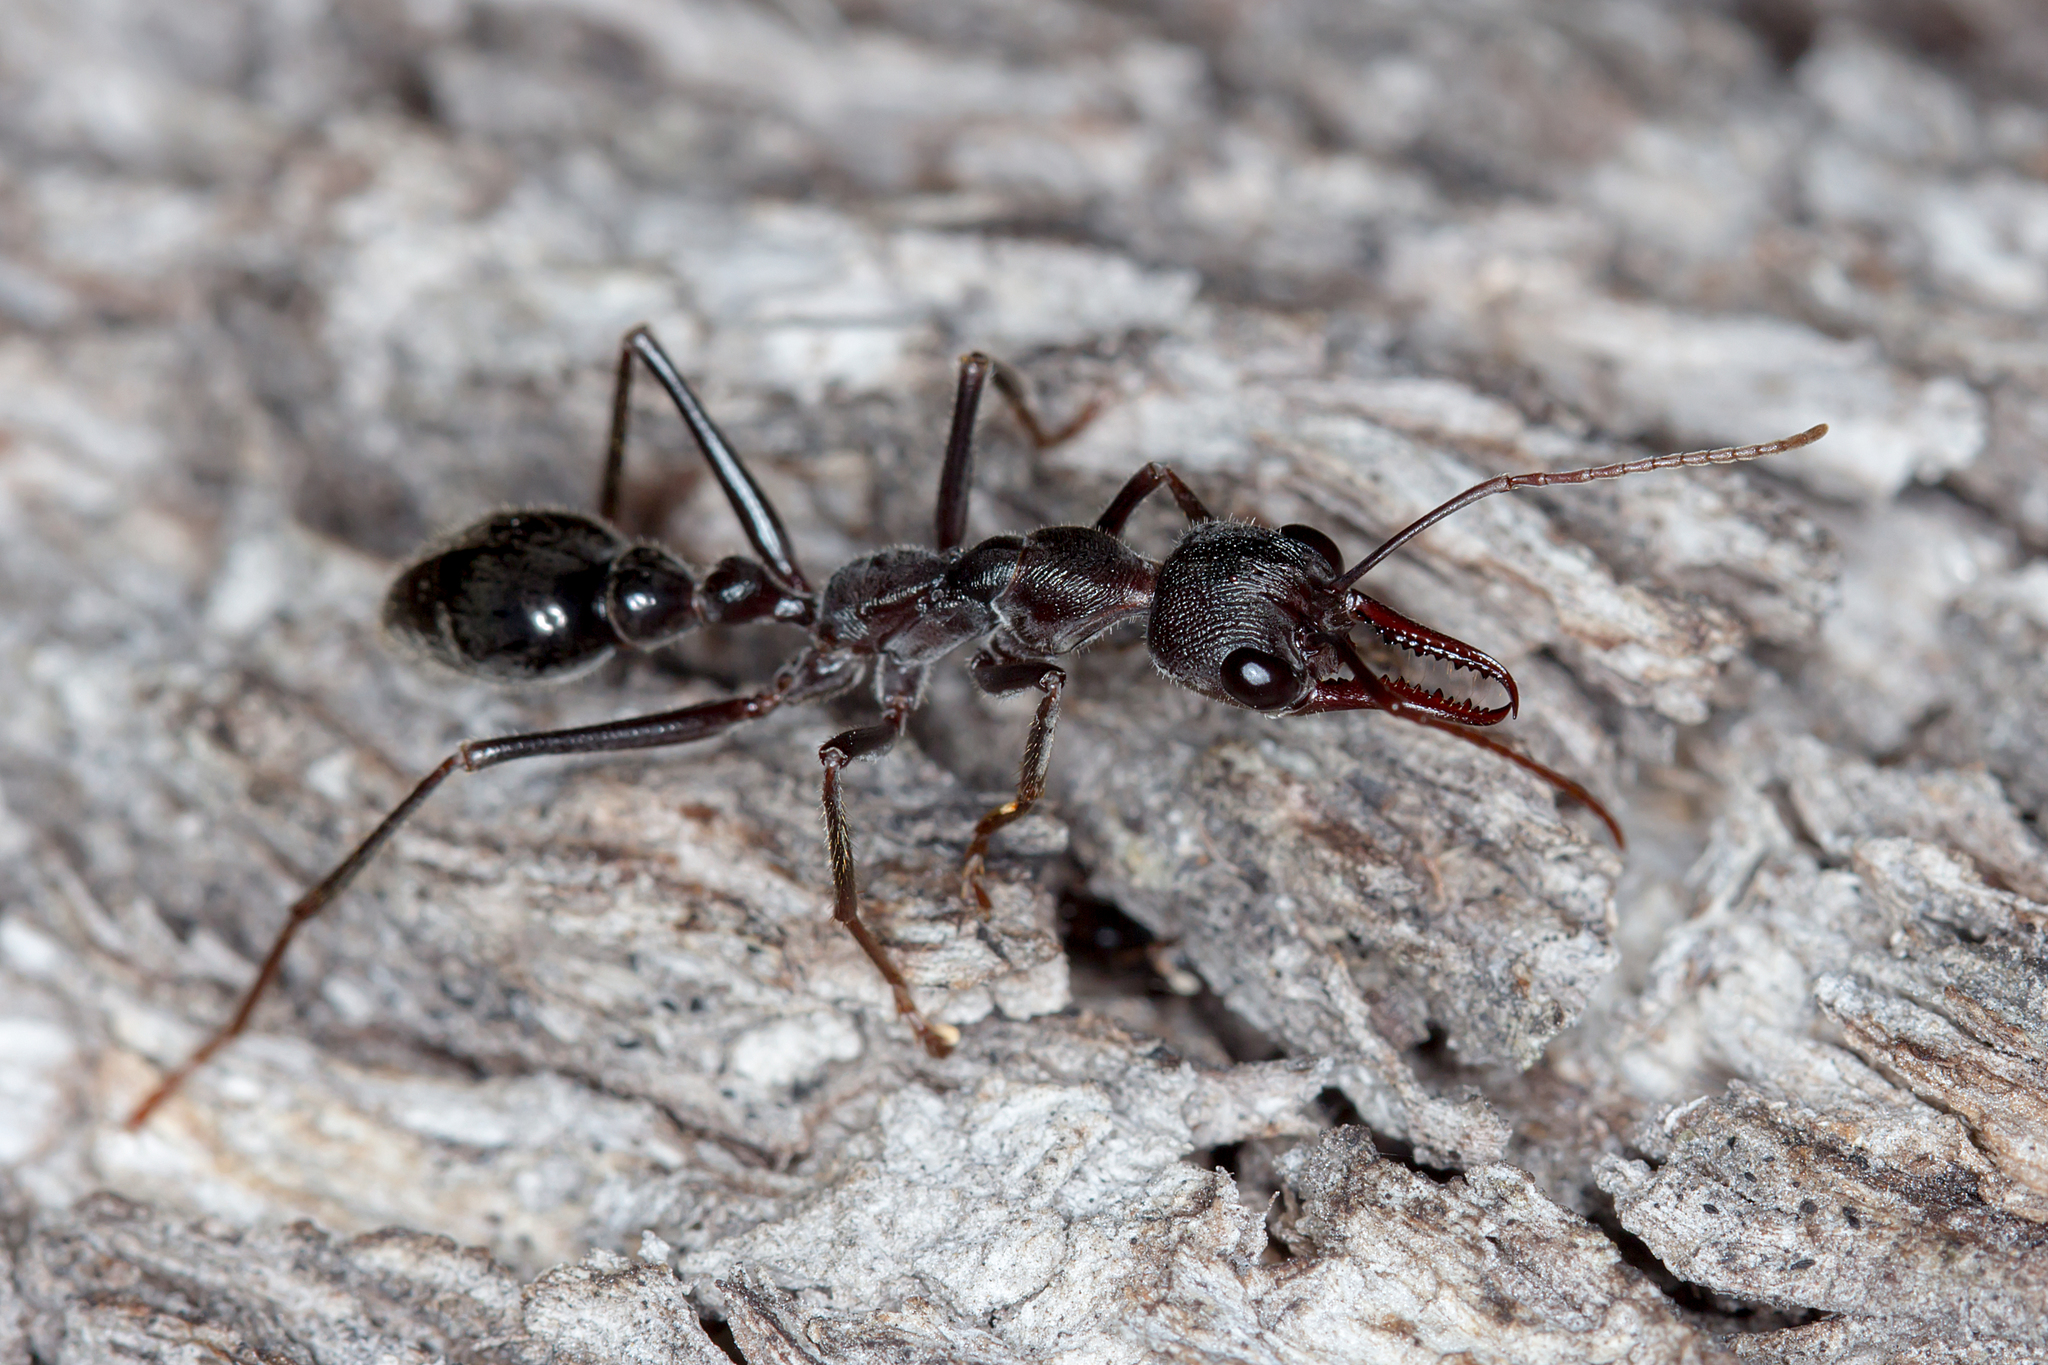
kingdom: Animalia
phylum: Arthropoda
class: Insecta
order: Hymenoptera
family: Formicidae
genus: Myrmecia
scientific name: Myrmecia pyriformis
